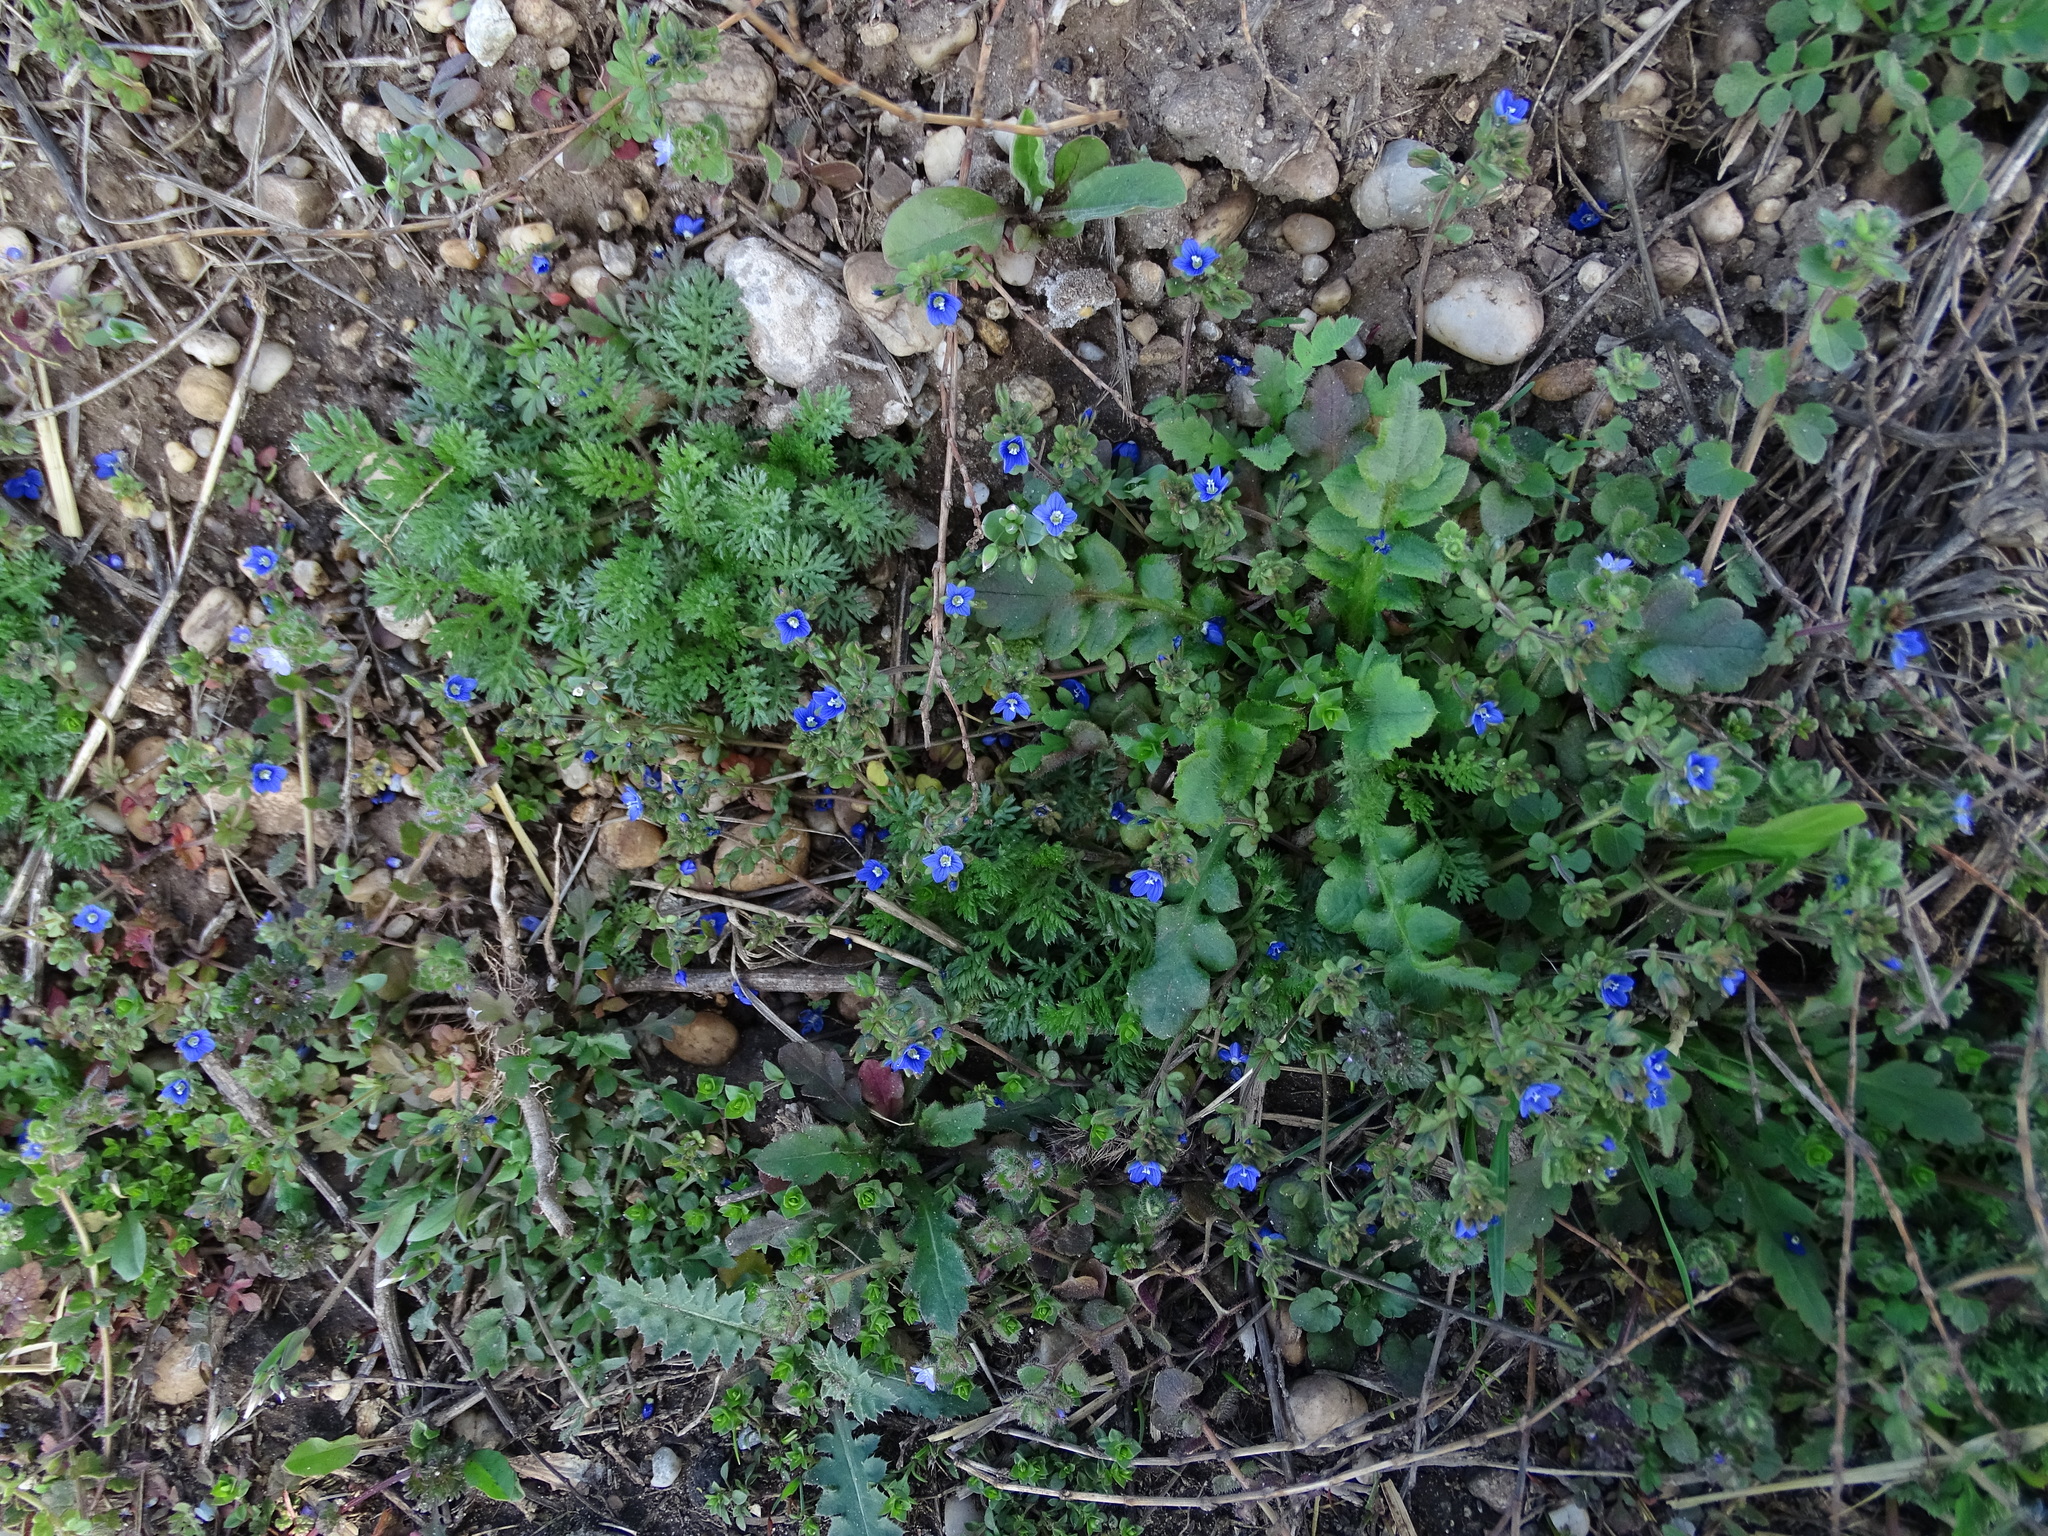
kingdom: Plantae
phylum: Tracheophyta
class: Magnoliopsida
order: Lamiales
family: Plantaginaceae
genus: Veronica
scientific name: Veronica triphyllos
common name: Fingered speedwell
